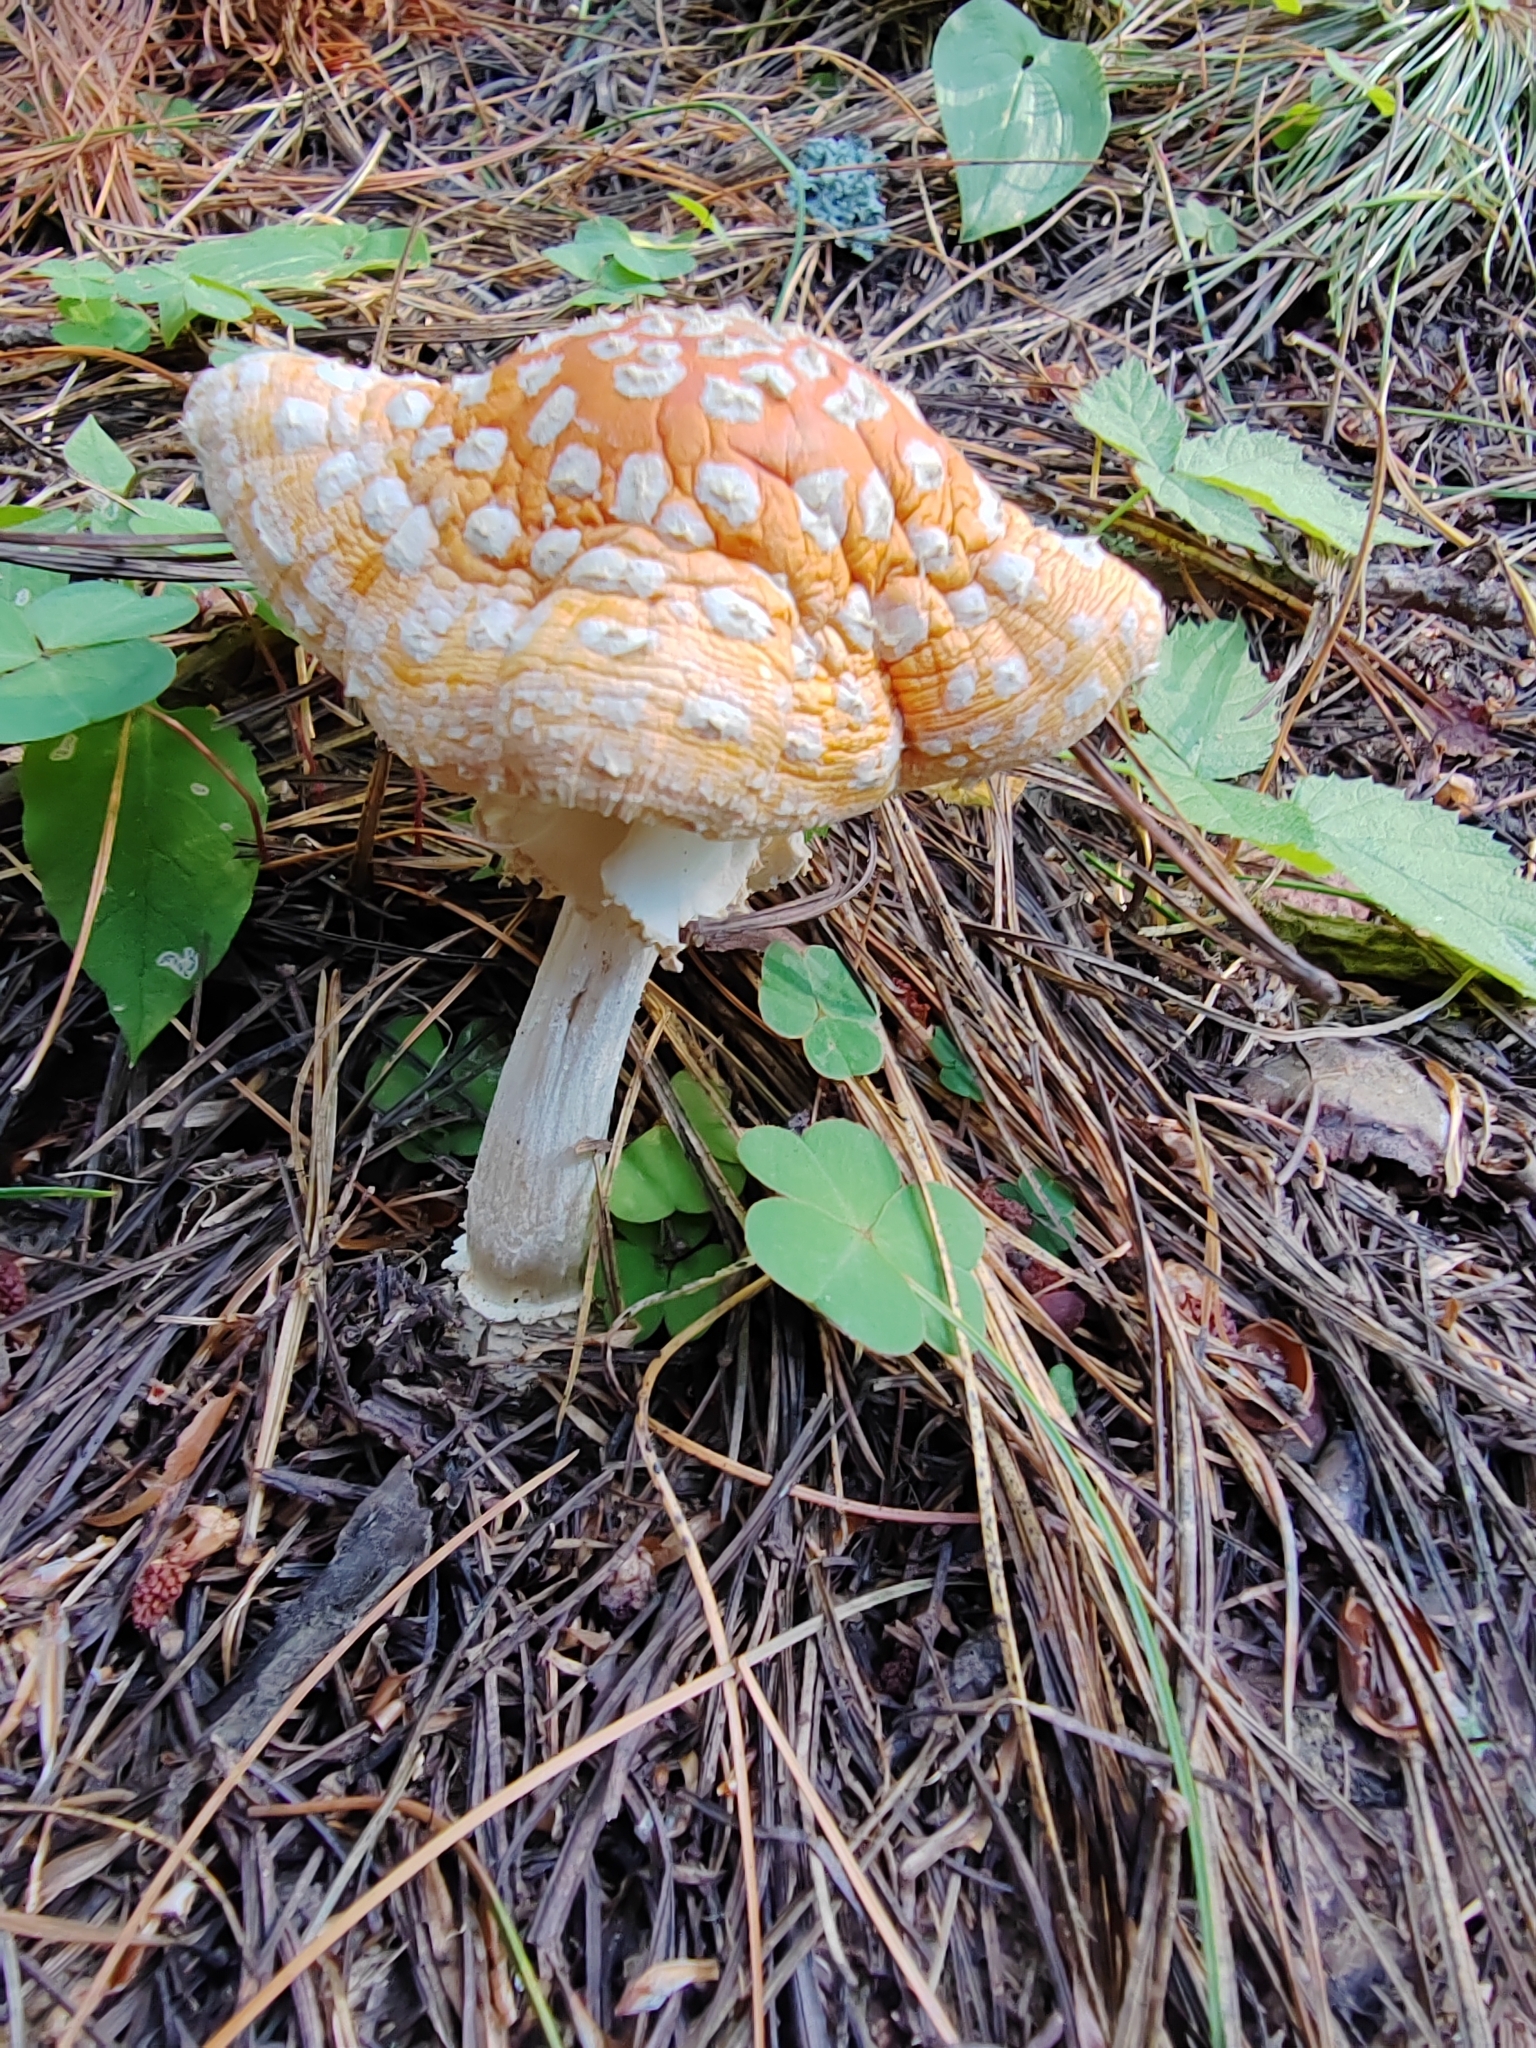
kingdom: Fungi
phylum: Basidiomycota
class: Agaricomycetes
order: Agaricales
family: Amanitaceae
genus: Amanita
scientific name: Amanita muscaria
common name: Fly agaric
